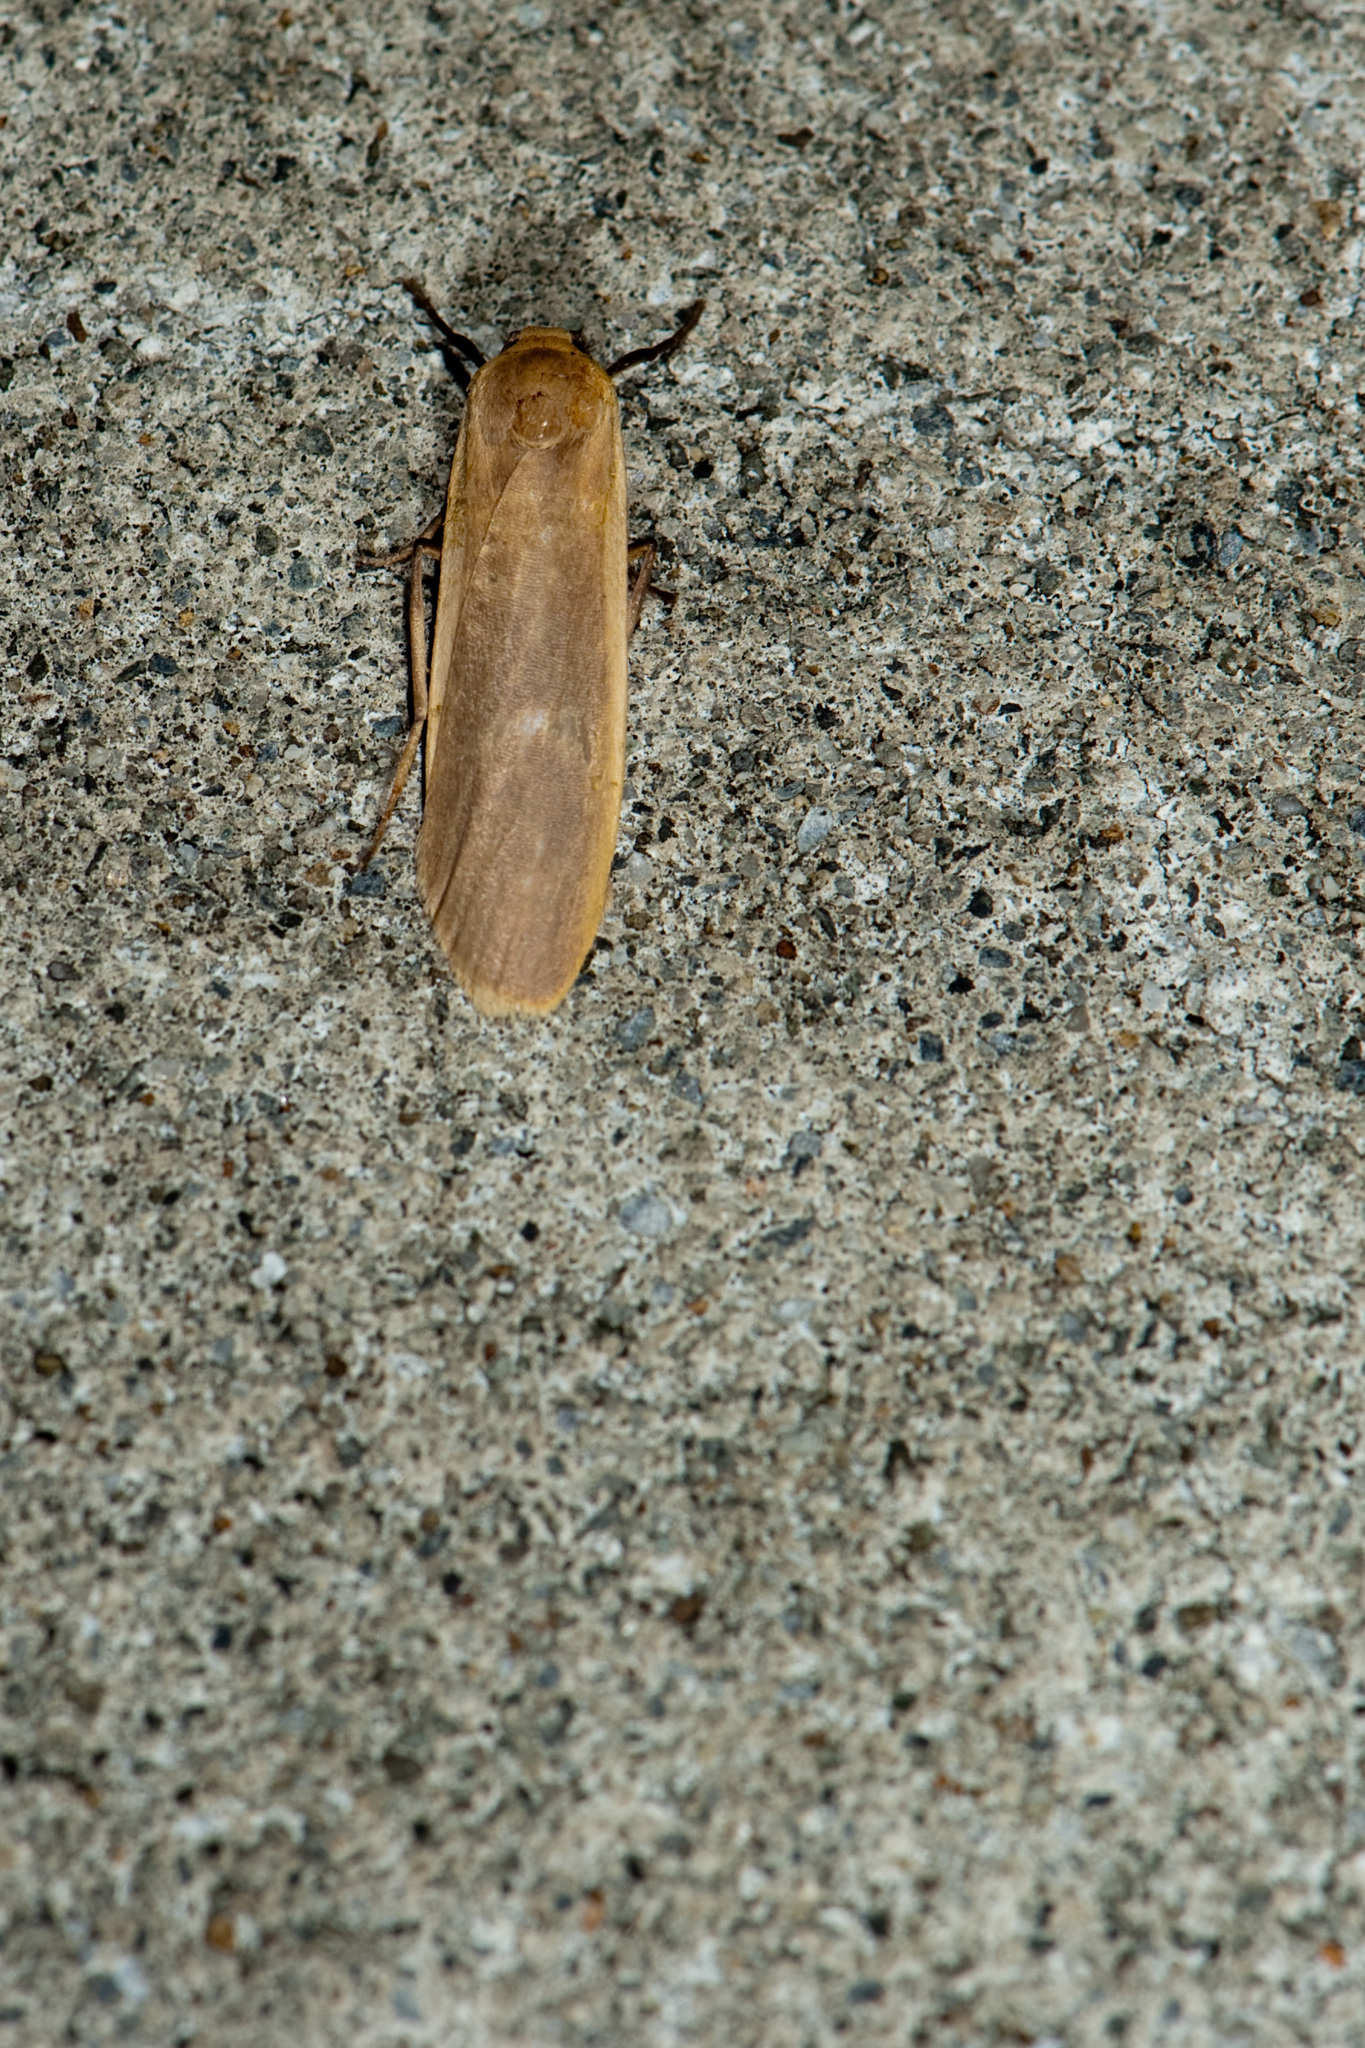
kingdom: Animalia
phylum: Arthropoda
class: Insecta
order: Lepidoptera
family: Erebidae
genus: Brunia
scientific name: Brunia antica
